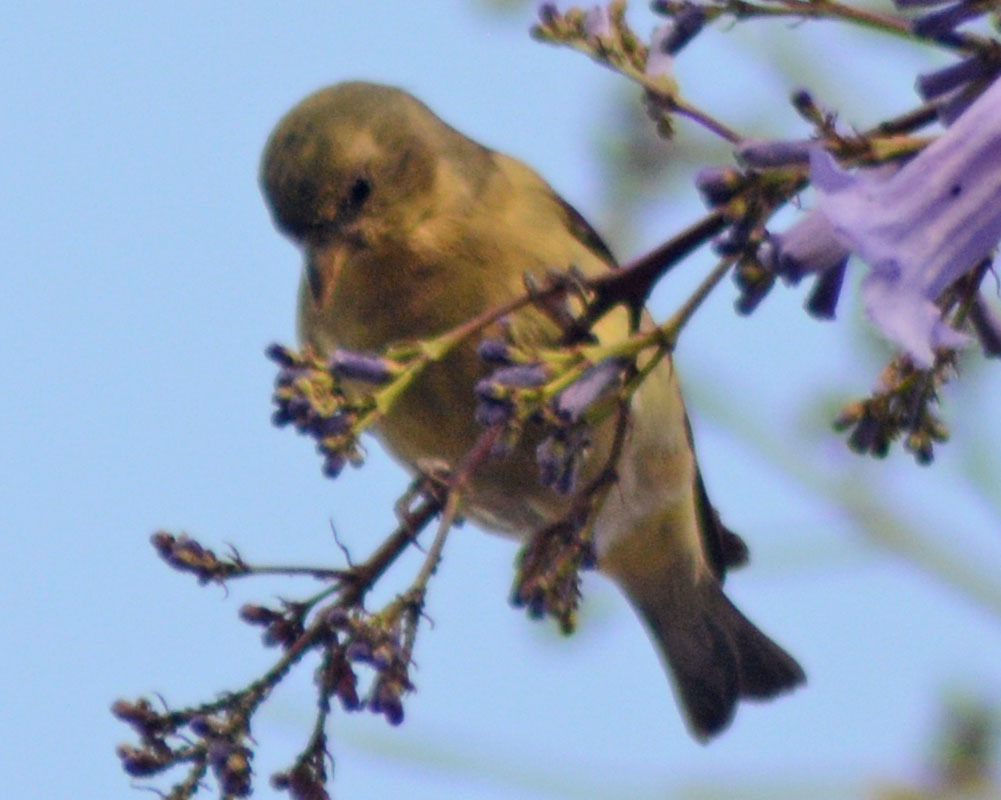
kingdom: Animalia
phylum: Chordata
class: Aves
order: Passeriformes
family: Fringillidae
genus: Spinus
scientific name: Spinus psaltria
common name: Lesser goldfinch
